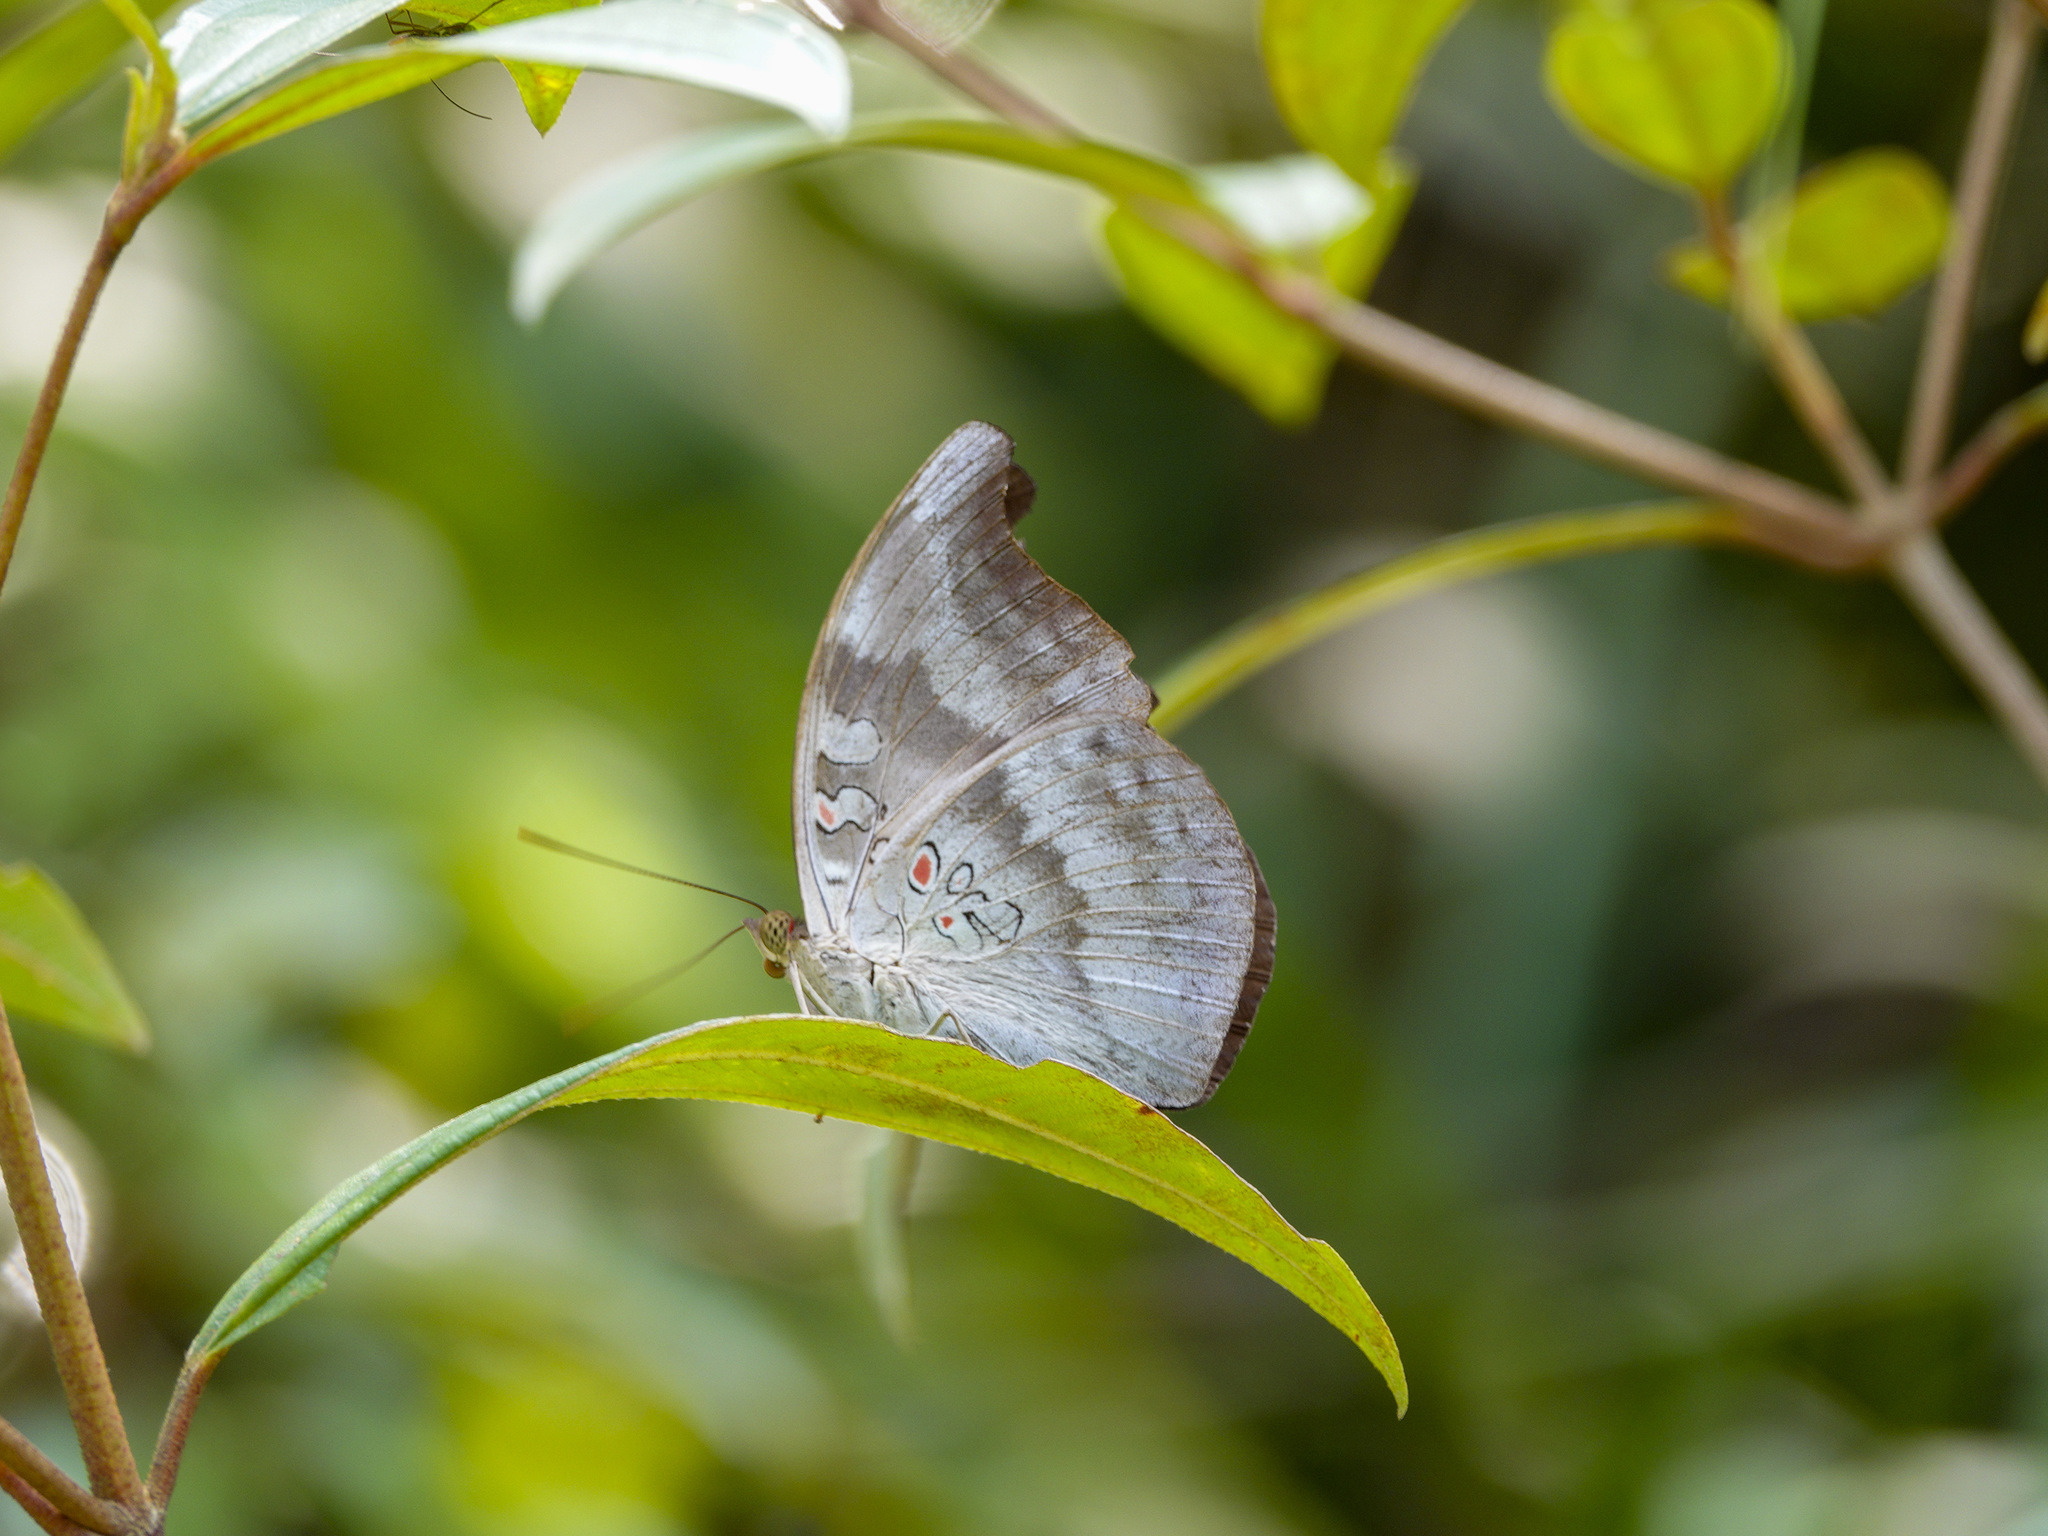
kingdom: Animalia
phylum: Arthropoda
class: Insecta
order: Lepidoptera
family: Nymphalidae
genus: Euthalia
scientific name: Euthalia Dophla evelina
